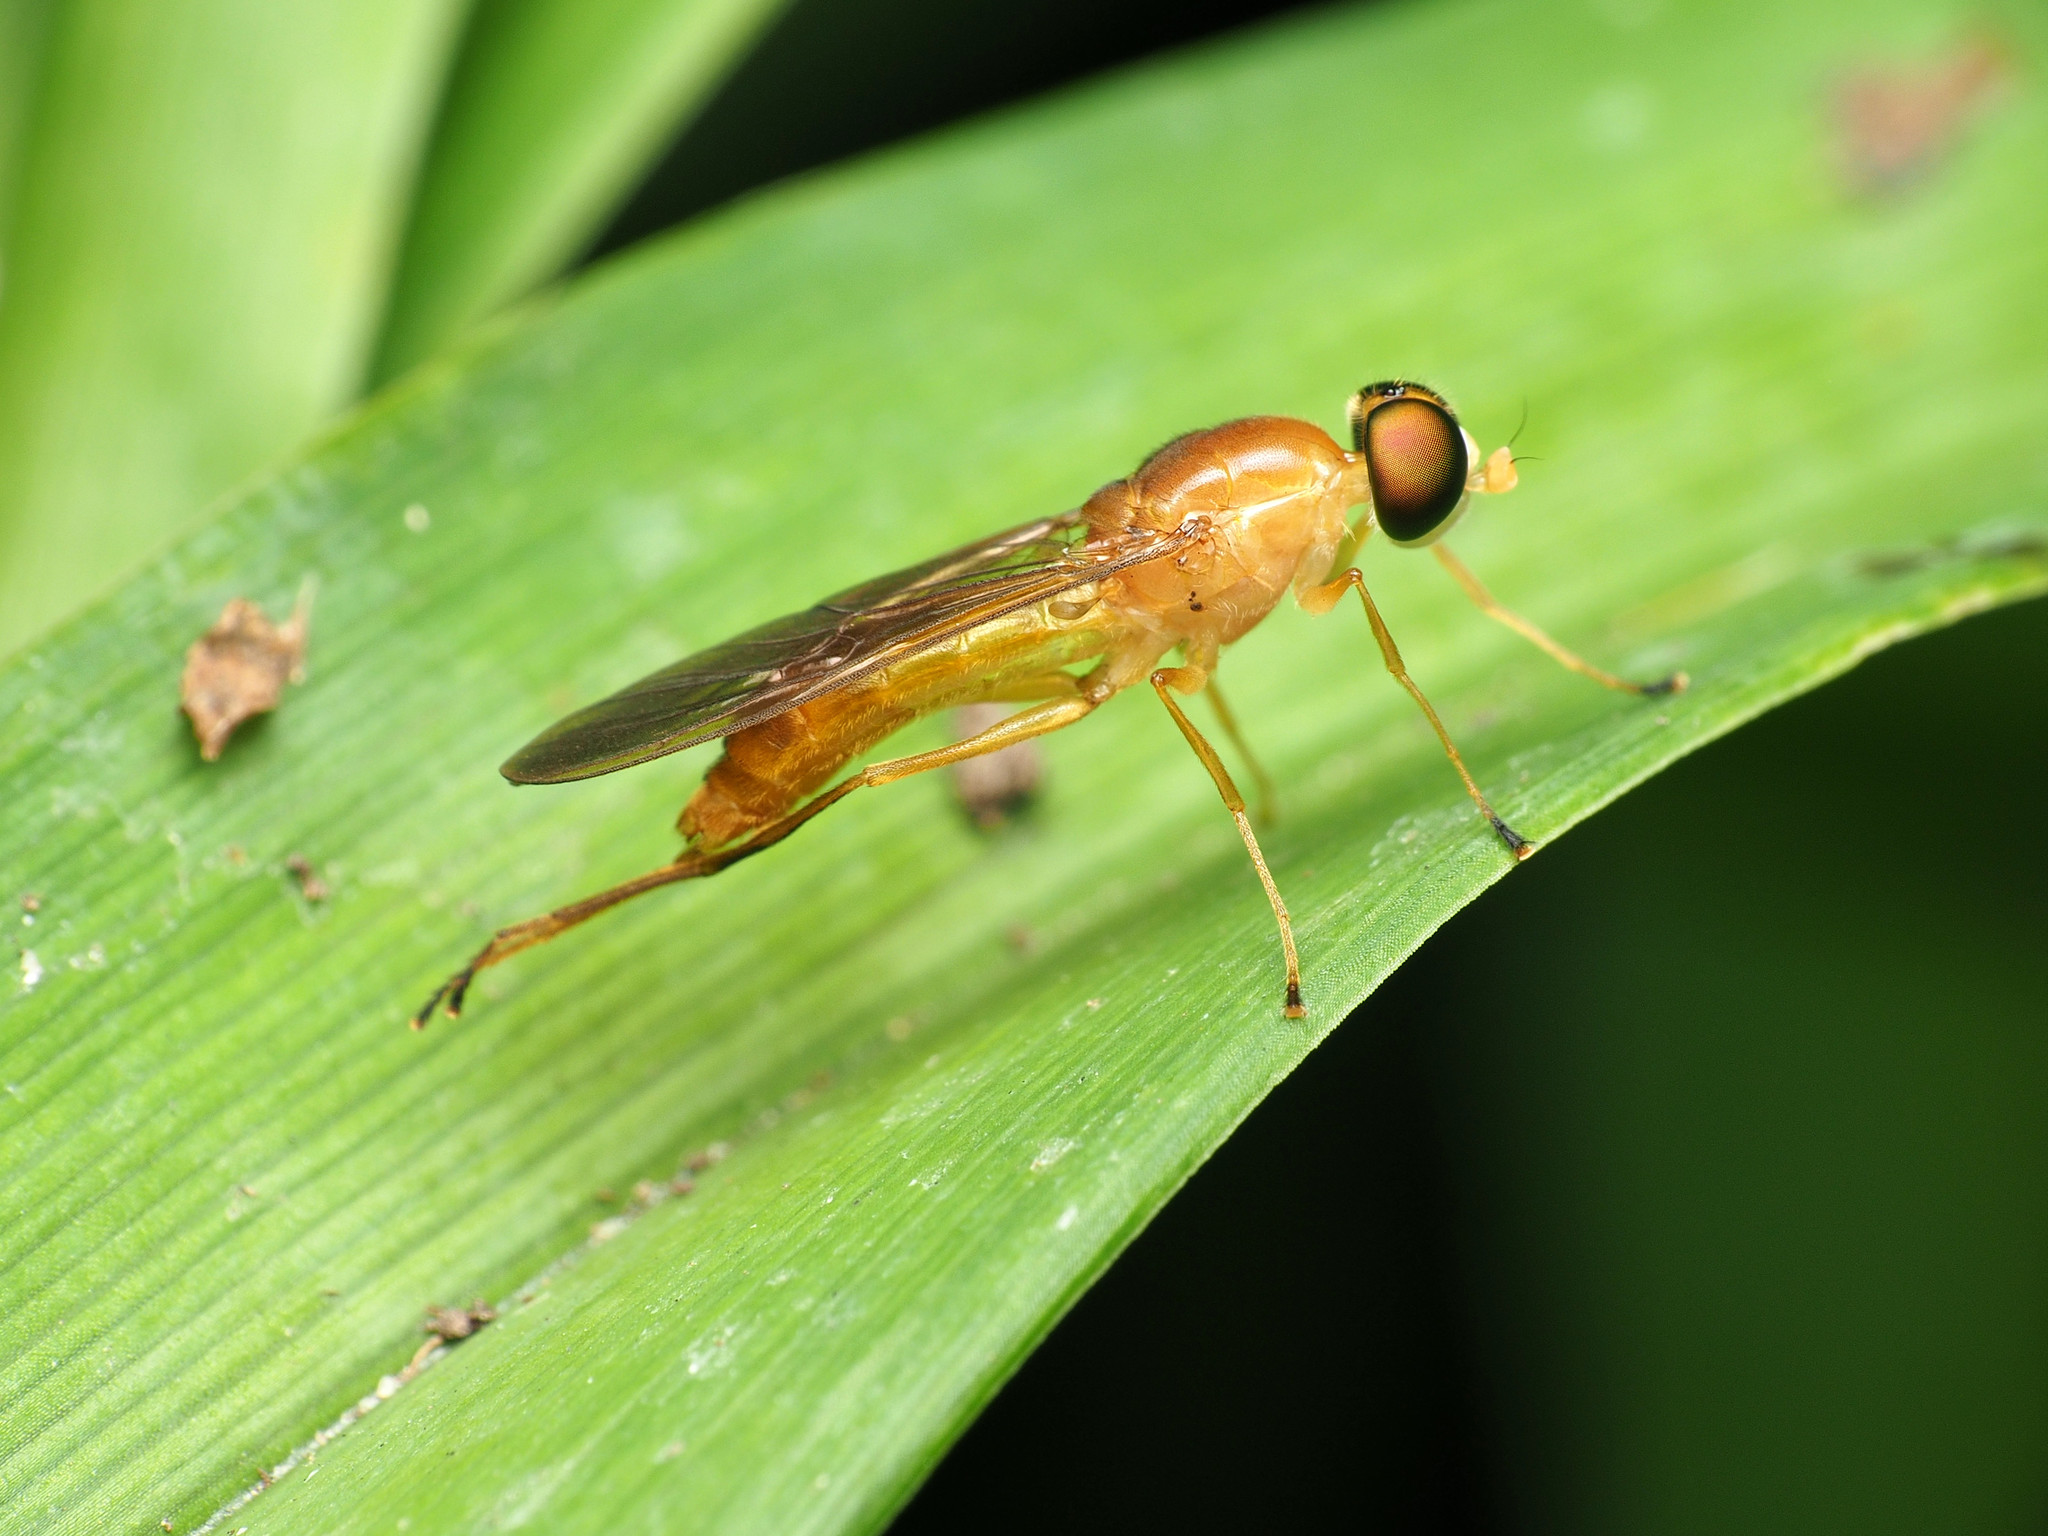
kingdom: Animalia
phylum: Arthropoda
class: Insecta
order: Diptera
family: Stratiomyidae
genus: Ptecticus
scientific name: Ptecticus trivittatus
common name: Compost fly
